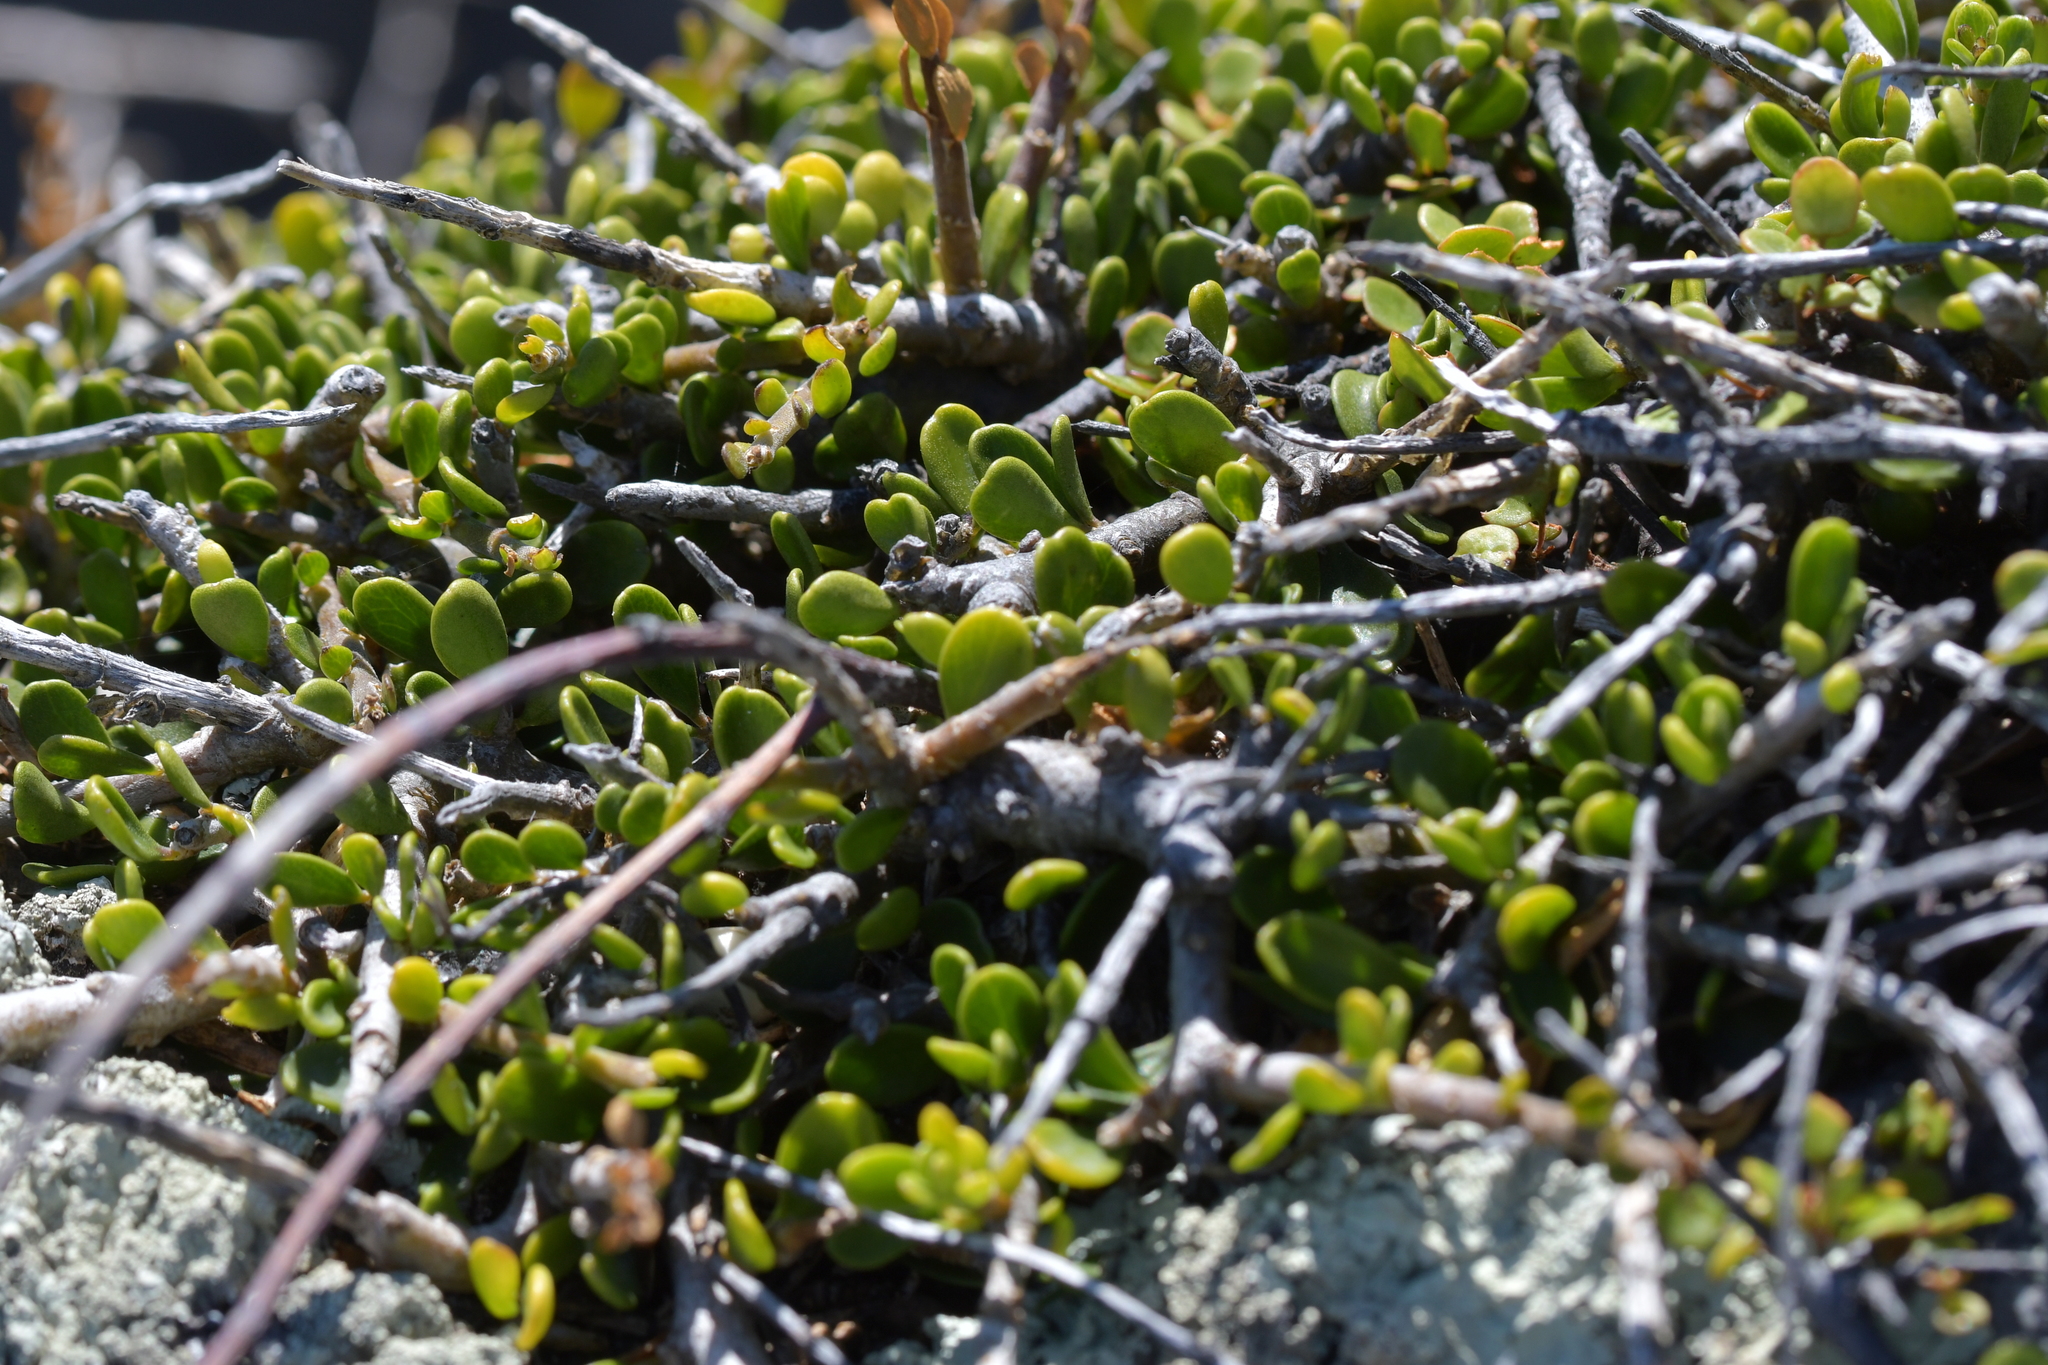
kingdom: Plantae
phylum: Tracheophyta
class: Magnoliopsida
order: Malpighiales
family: Violaceae
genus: Melicytus
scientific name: Melicytus crassifolius
